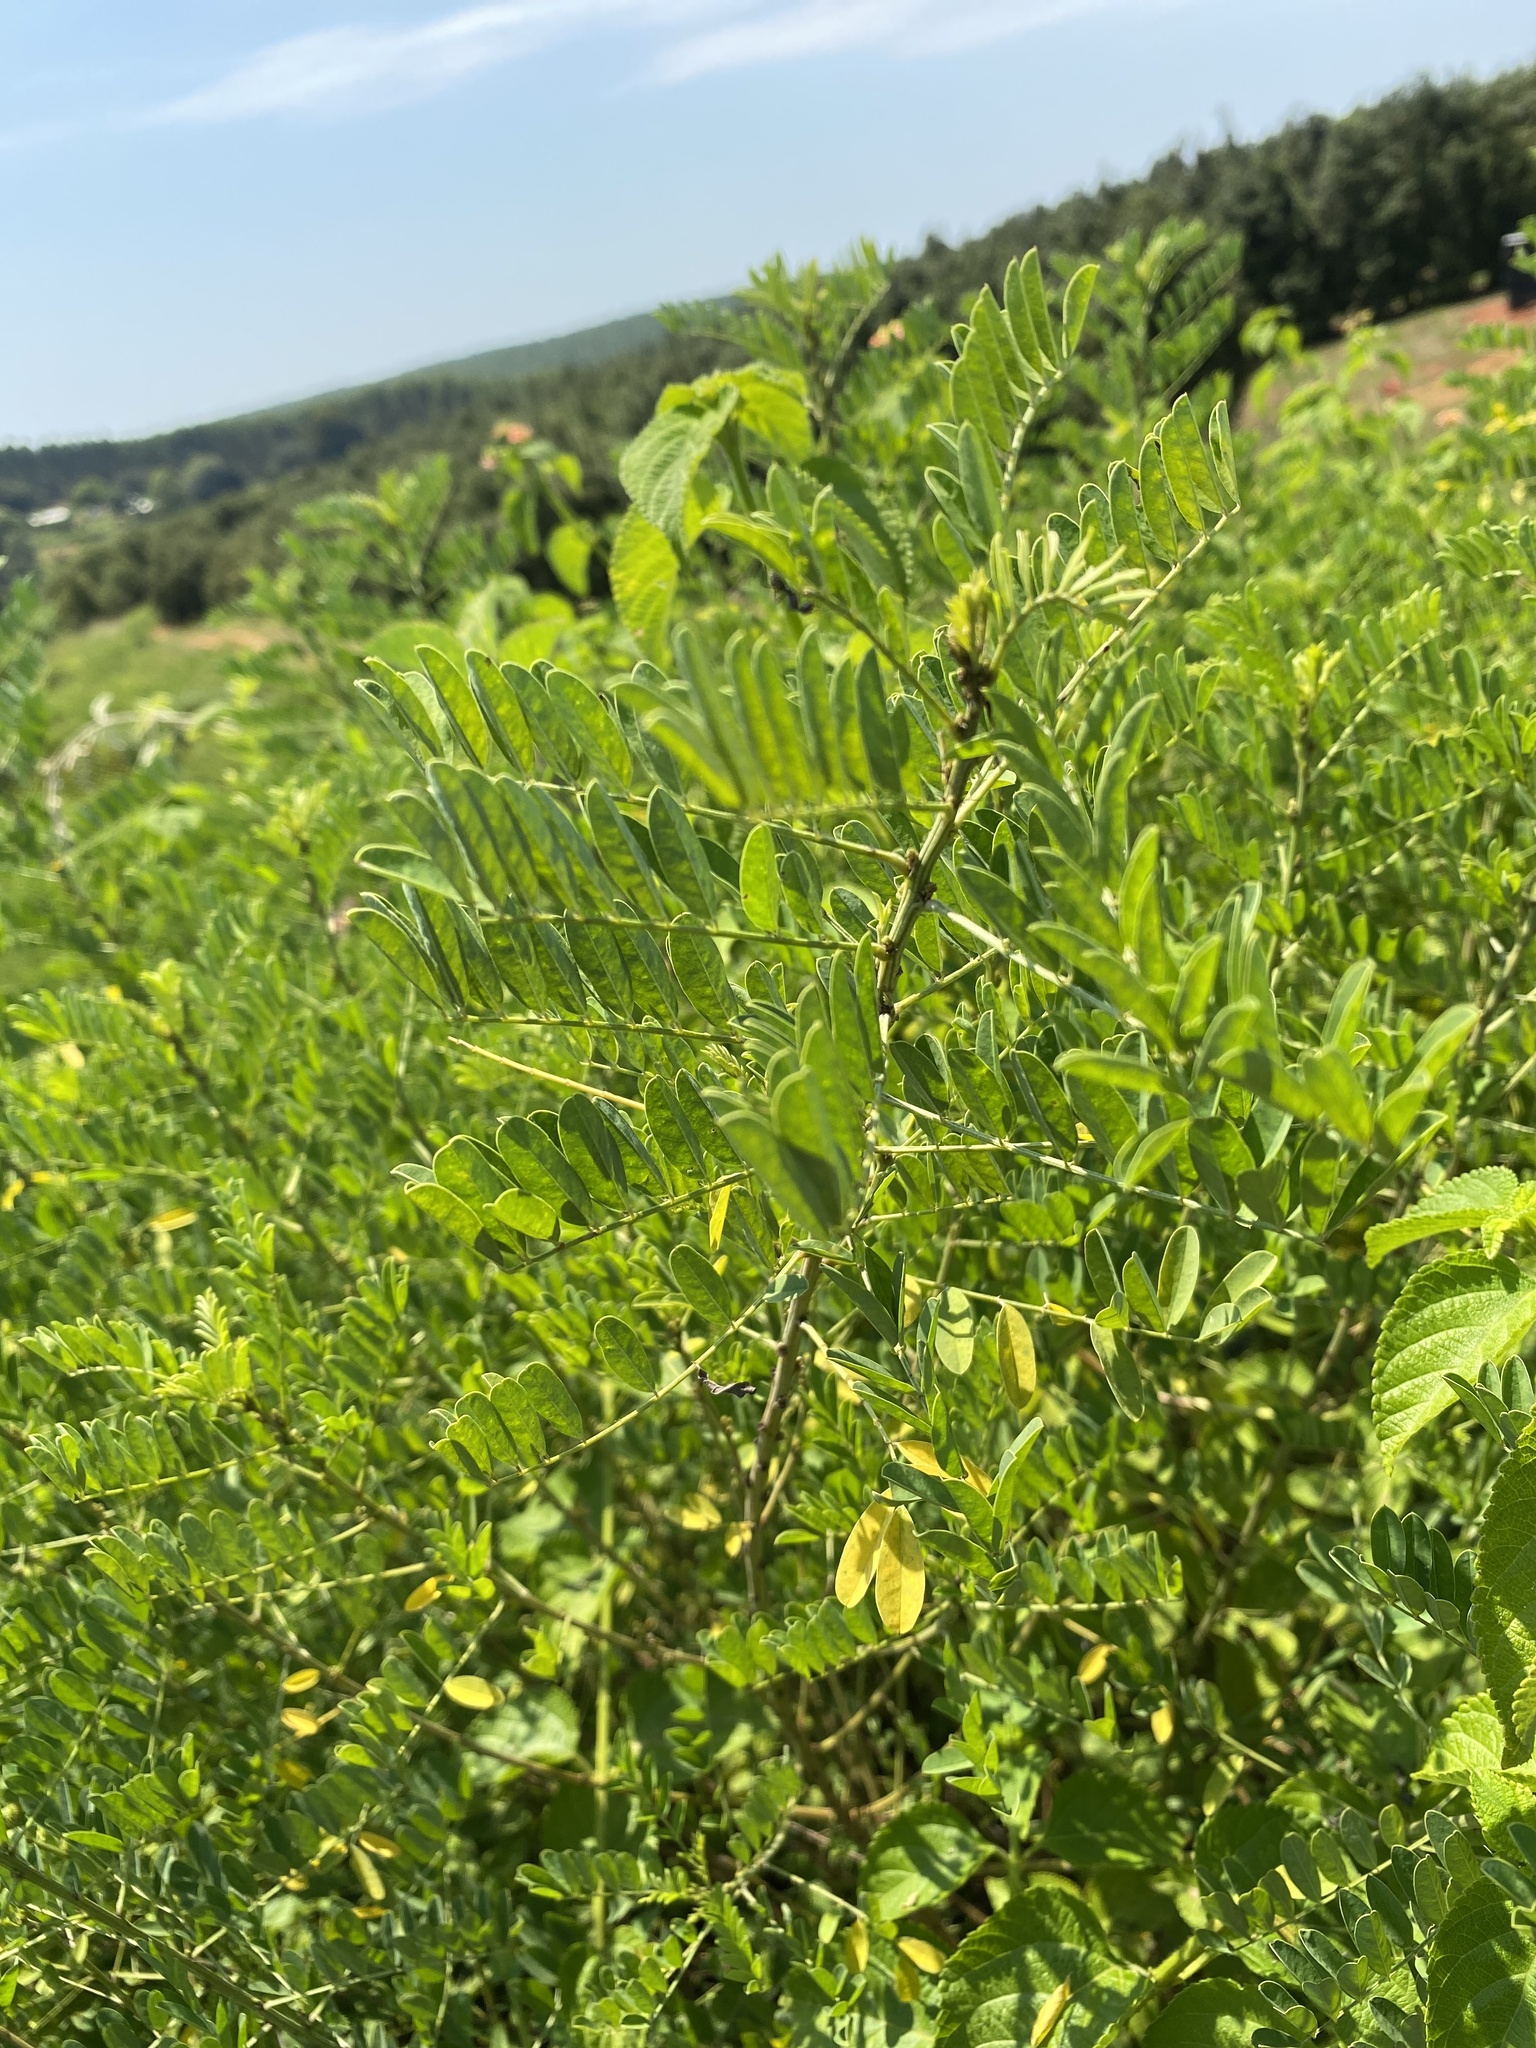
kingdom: Plantae
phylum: Tracheophyta
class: Magnoliopsida
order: Fabales
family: Fabaceae
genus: Indigofera
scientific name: Indigofera arrecta
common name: Bengal indigo
